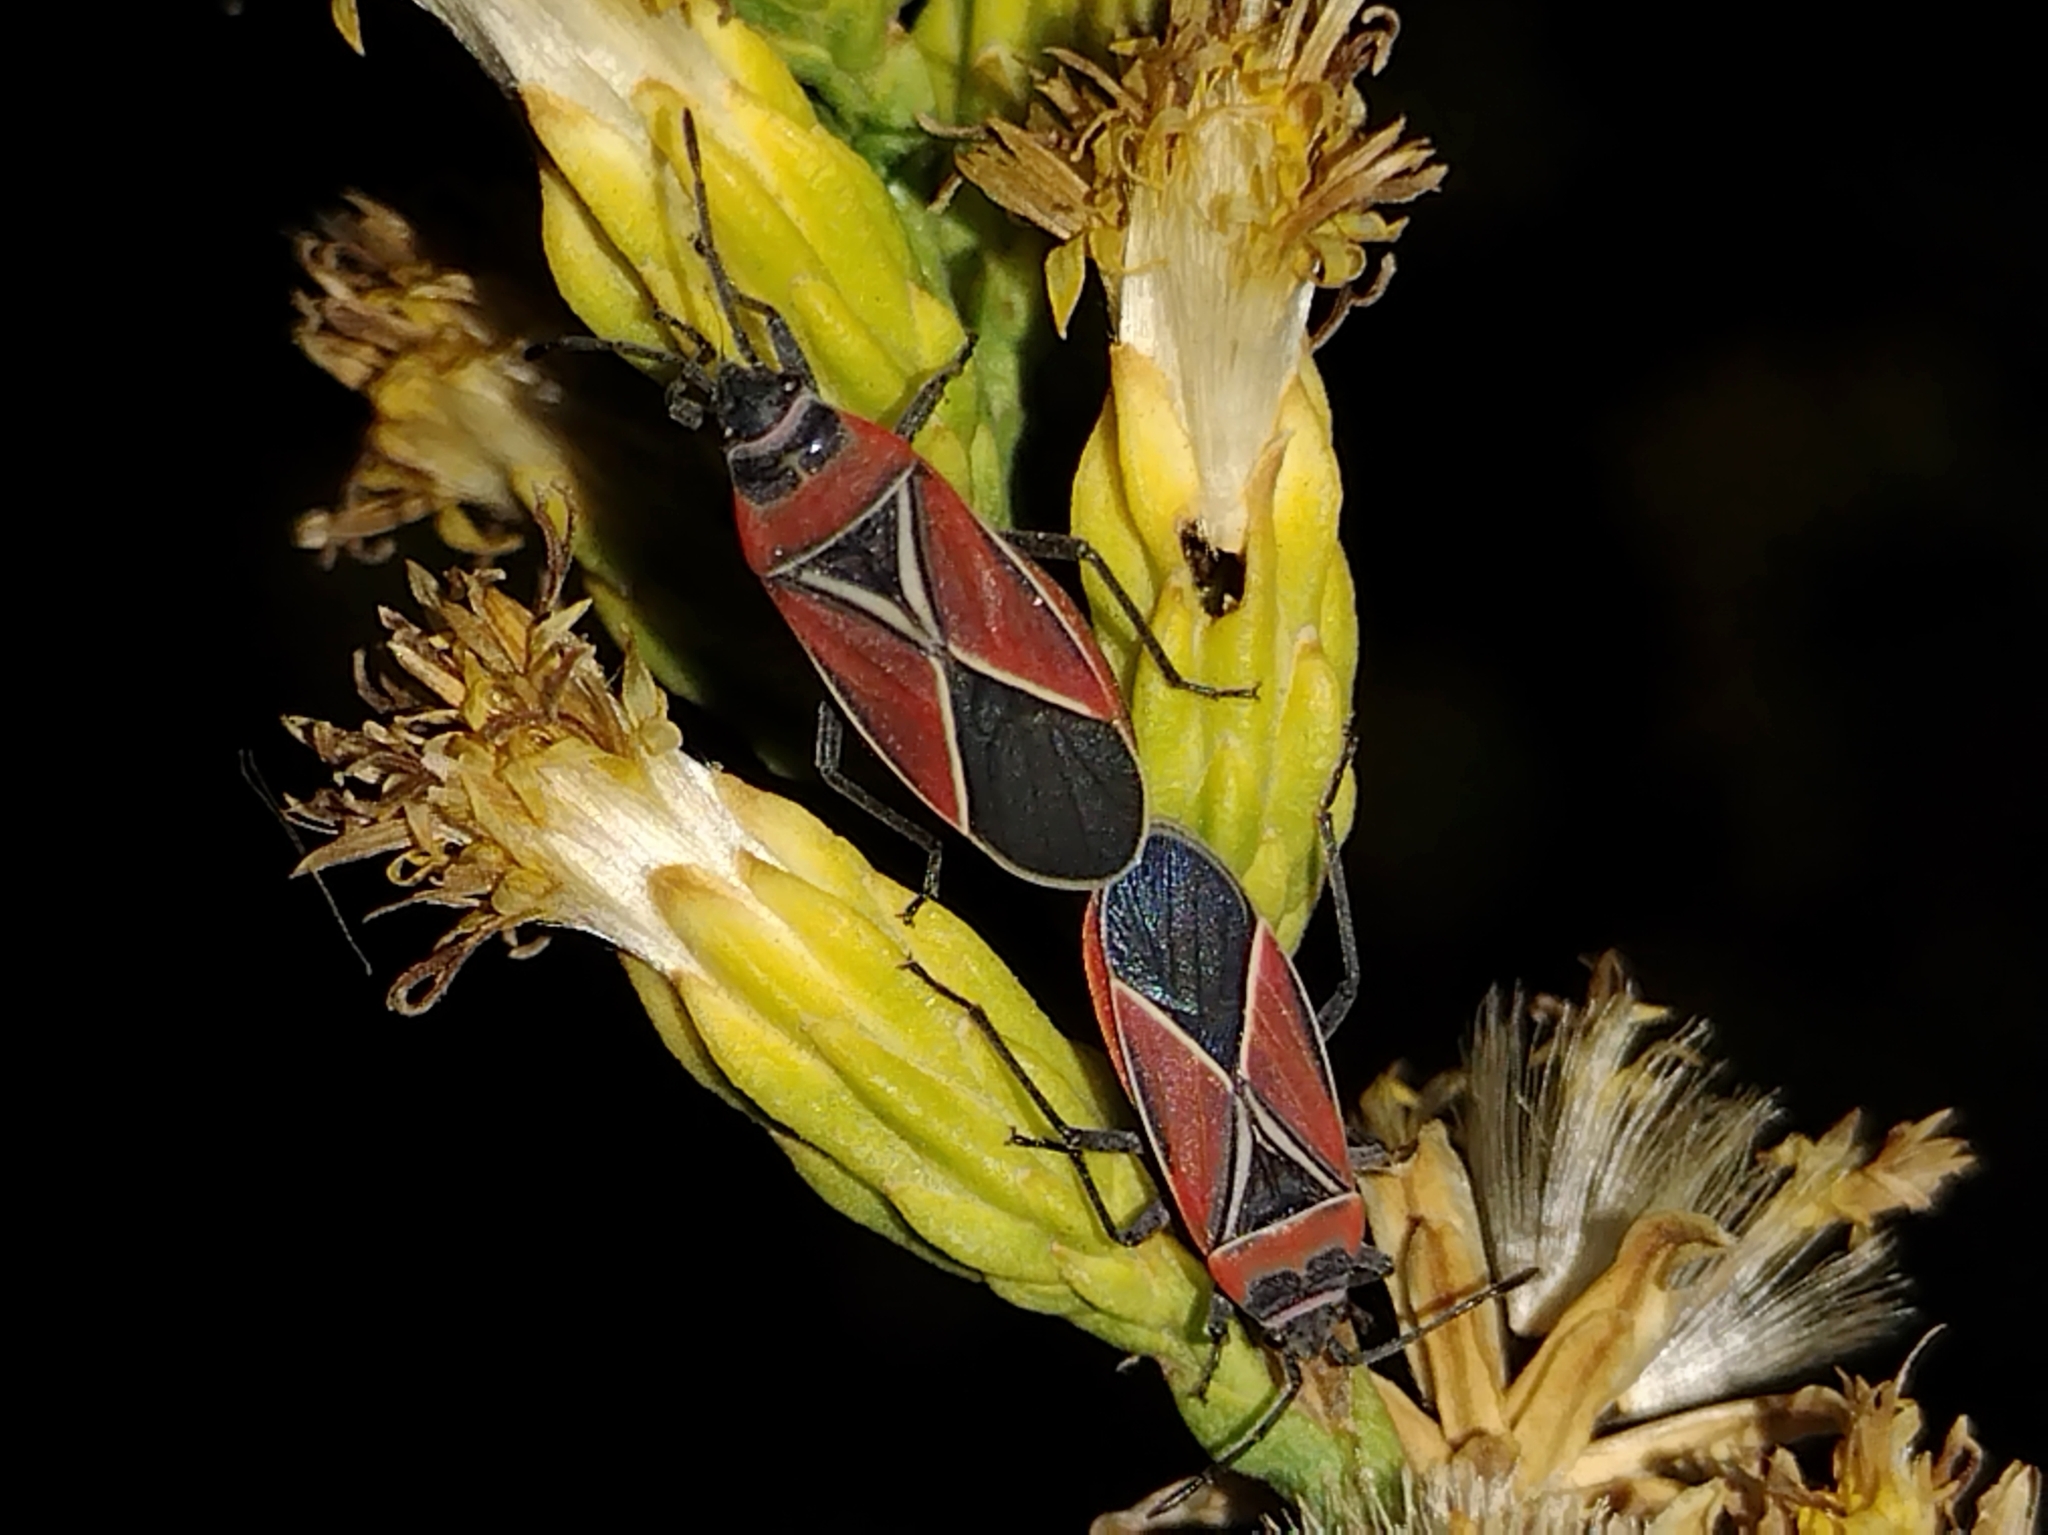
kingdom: Animalia
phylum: Arthropoda
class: Insecta
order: Hemiptera
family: Lygaeidae
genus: Neacoryphus
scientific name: Neacoryphus bicrucis
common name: Lygaeid bug
